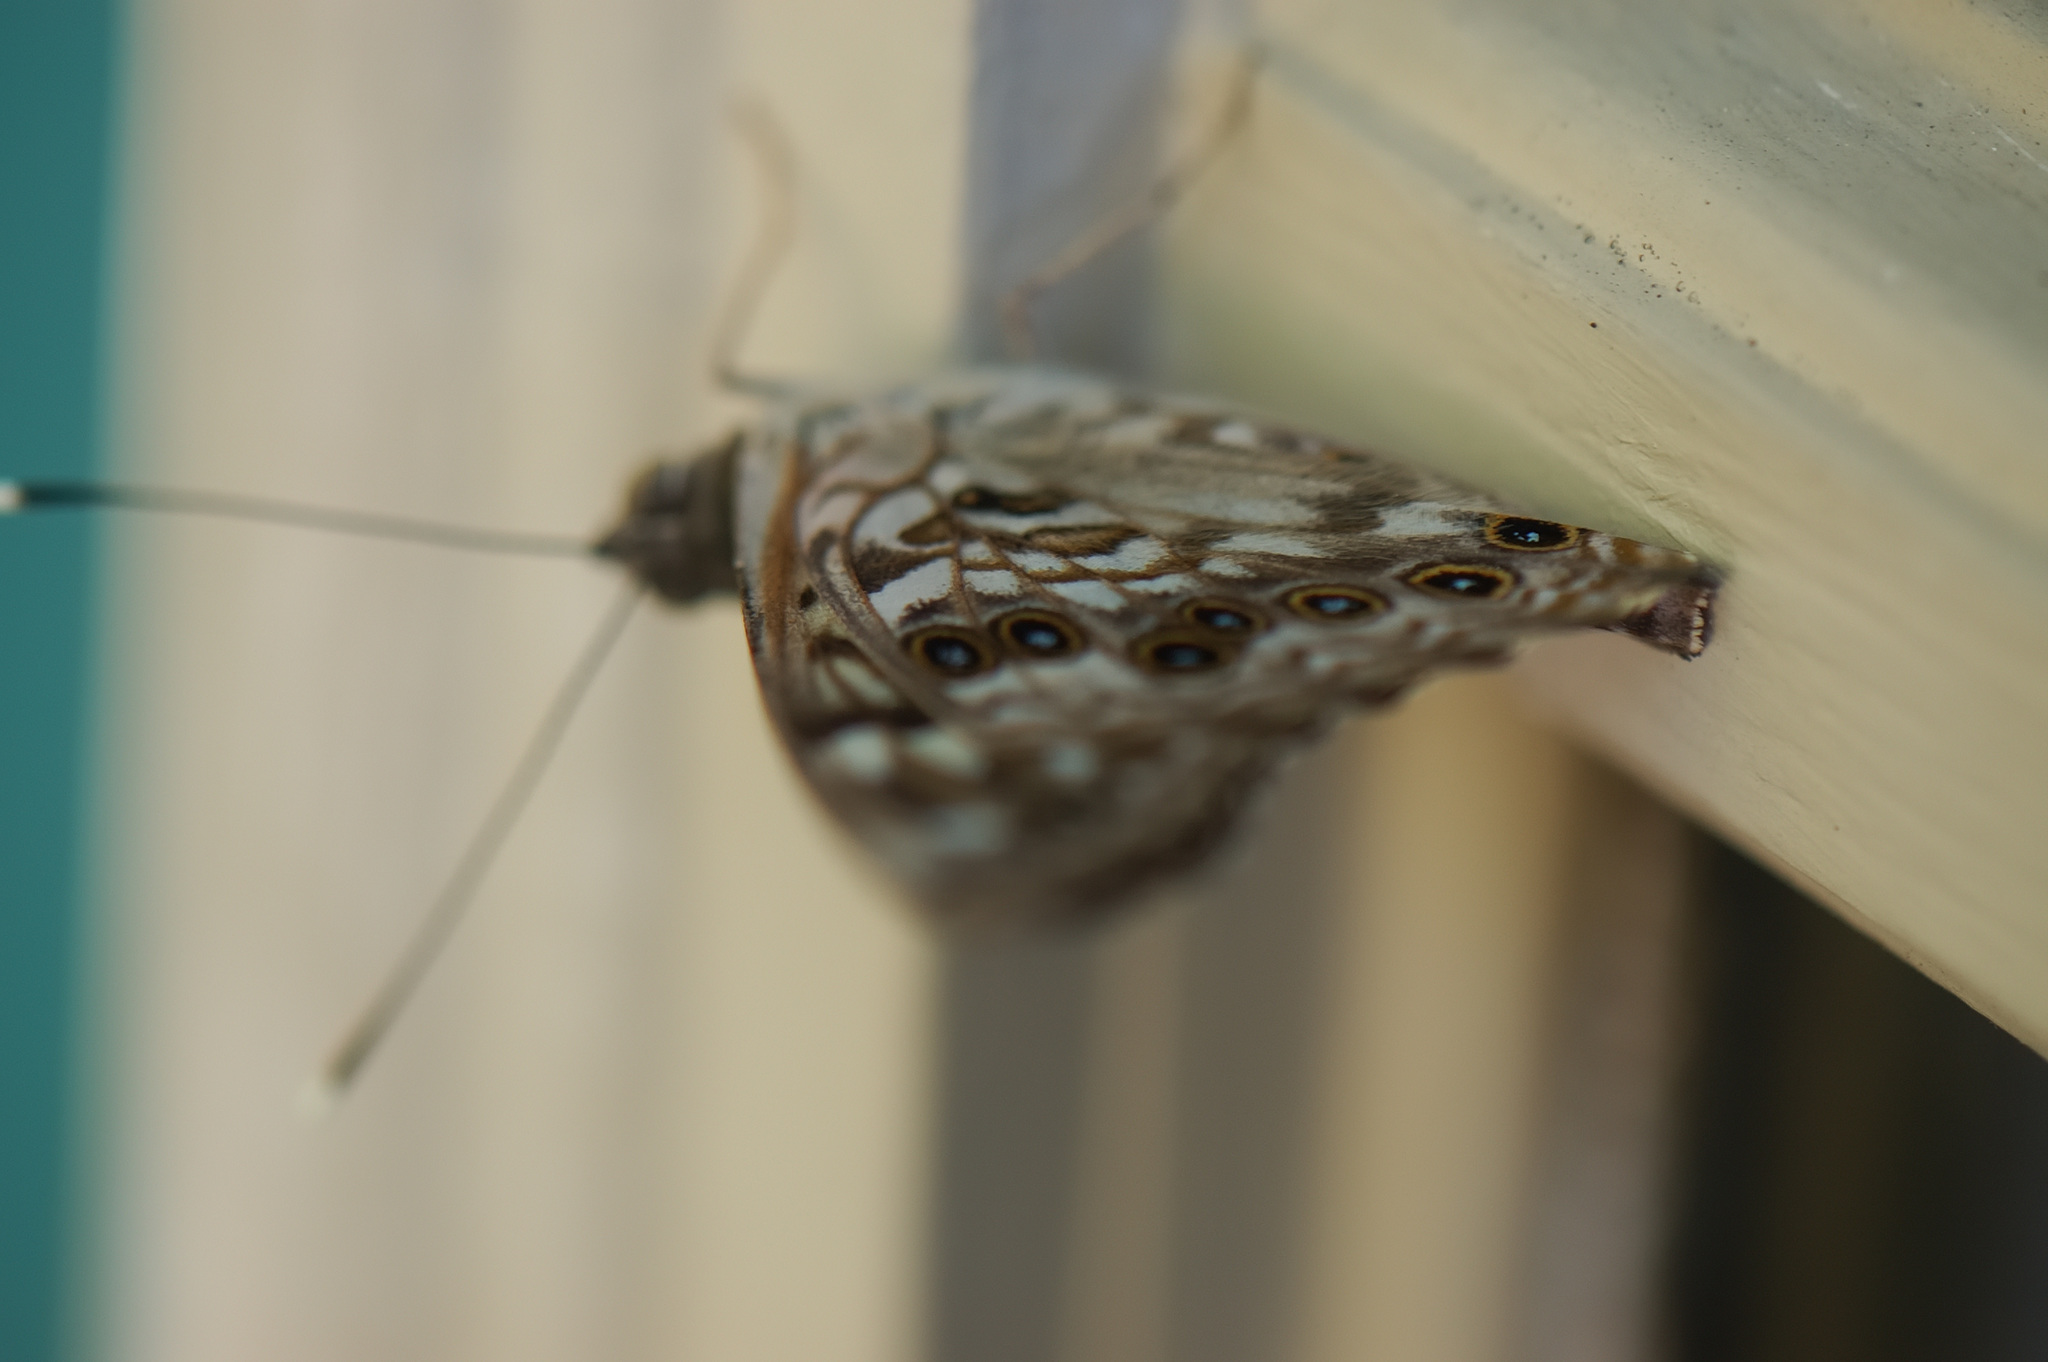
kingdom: Animalia
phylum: Arthropoda
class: Insecta
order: Lepidoptera
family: Nymphalidae
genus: Asterocampa
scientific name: Asterocampa celtis
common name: Hackberry emperor
